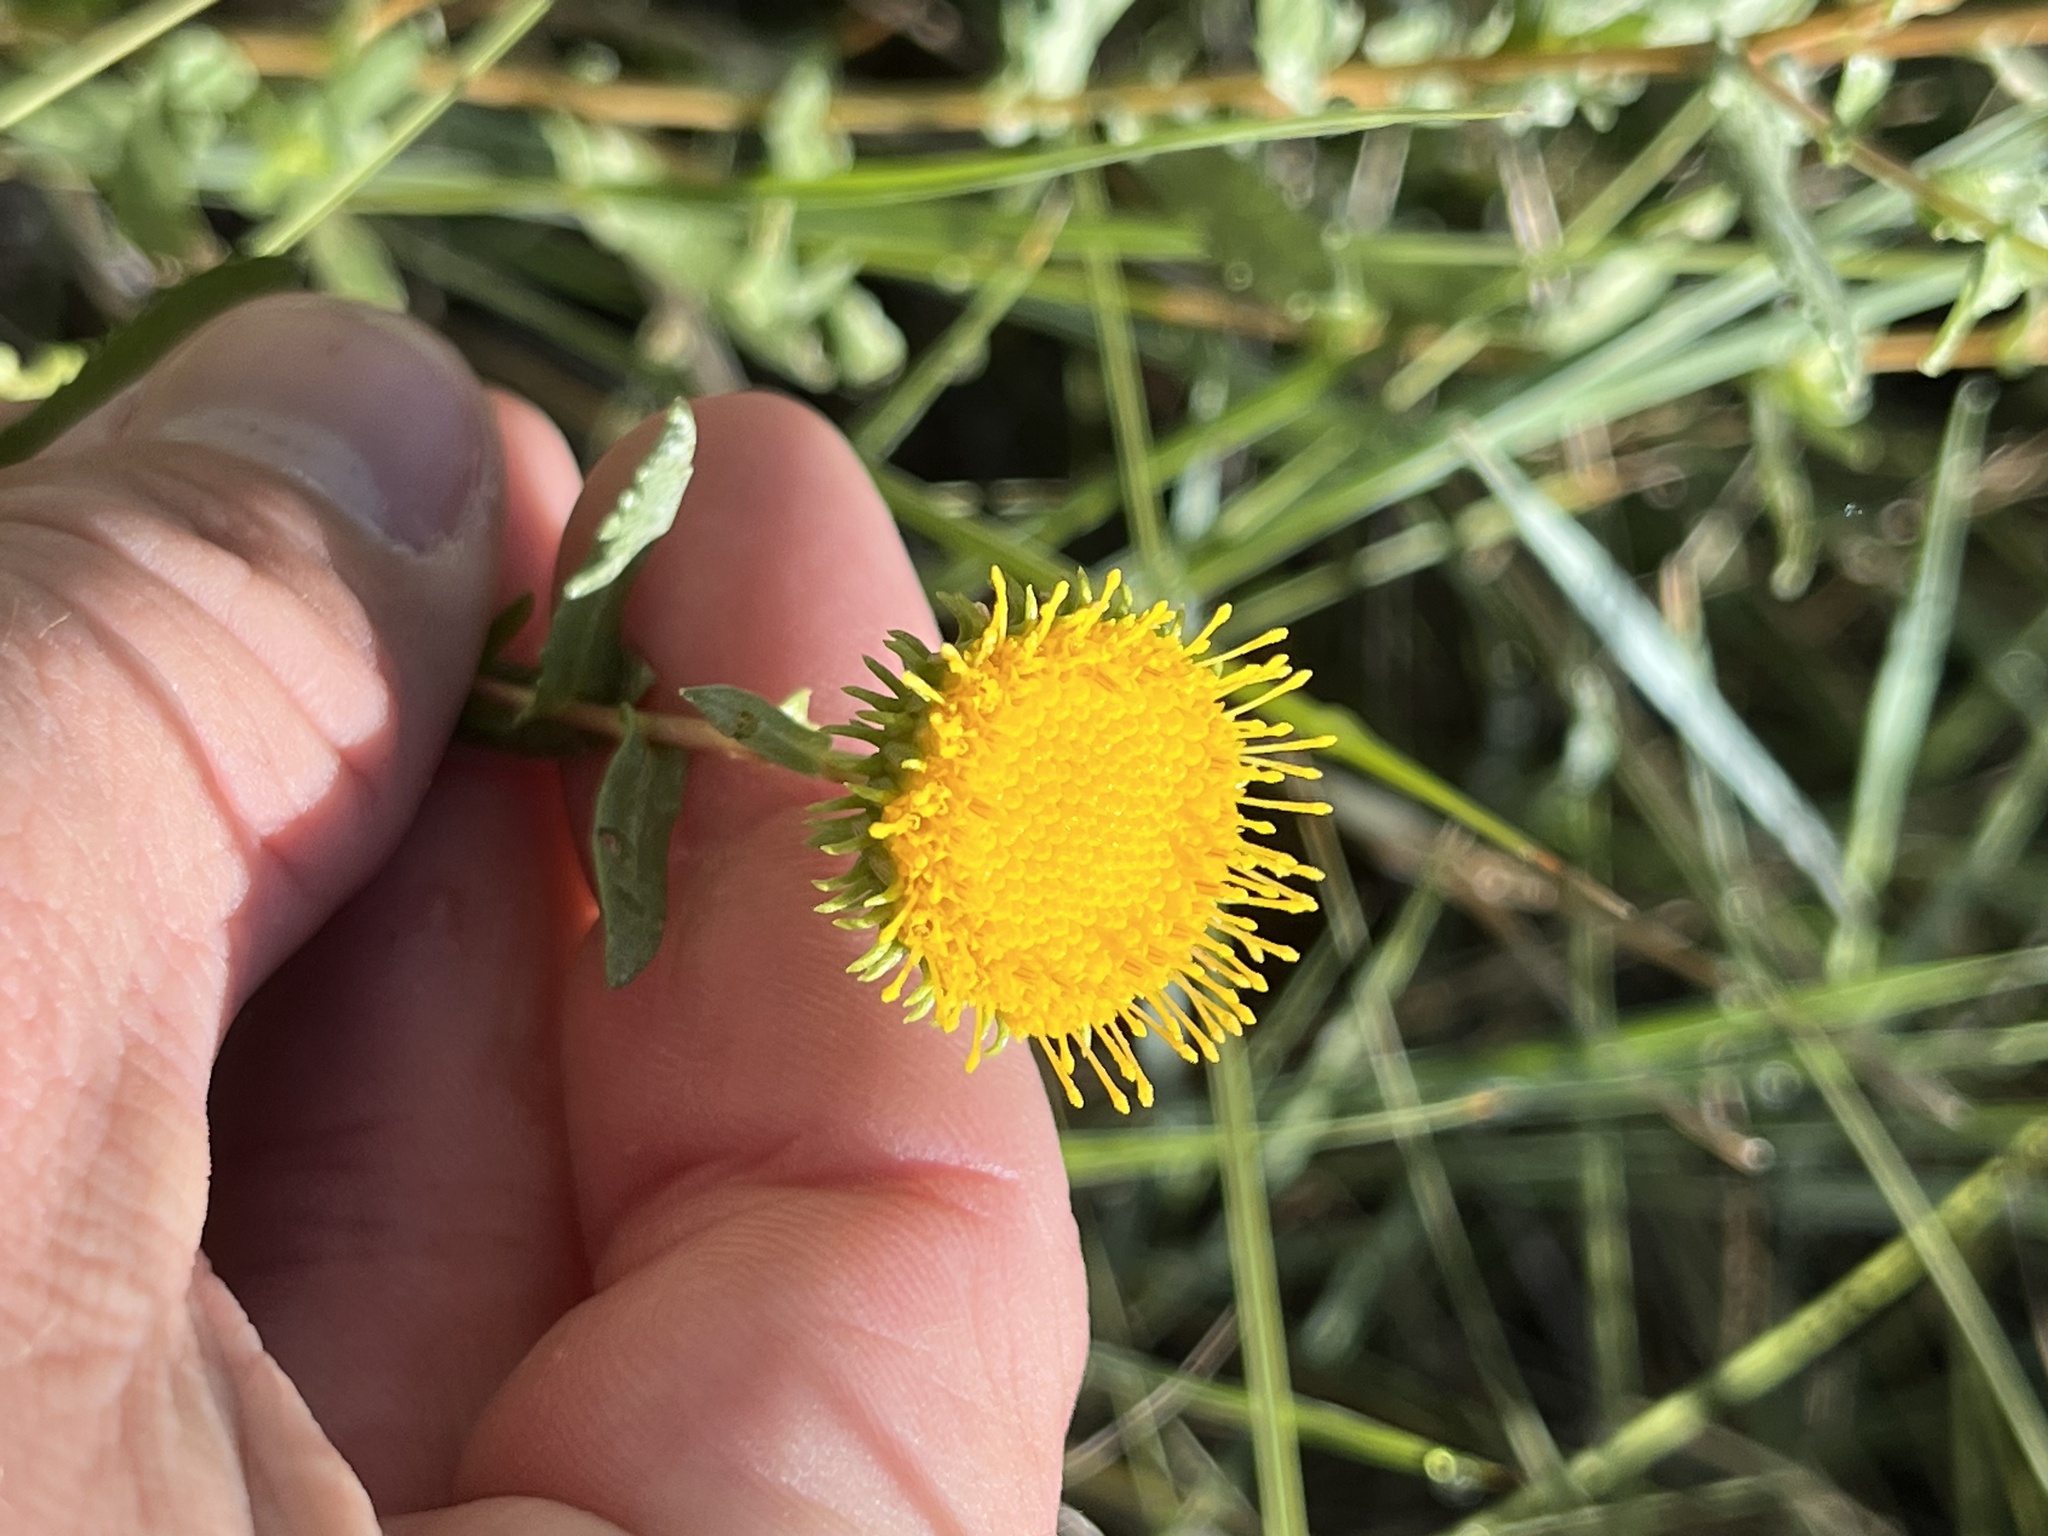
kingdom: Plantae
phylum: Tracheophyta
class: Magnoliopsida
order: Asterales
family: Asteraceae
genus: Grindelia
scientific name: Grindelia nuda
